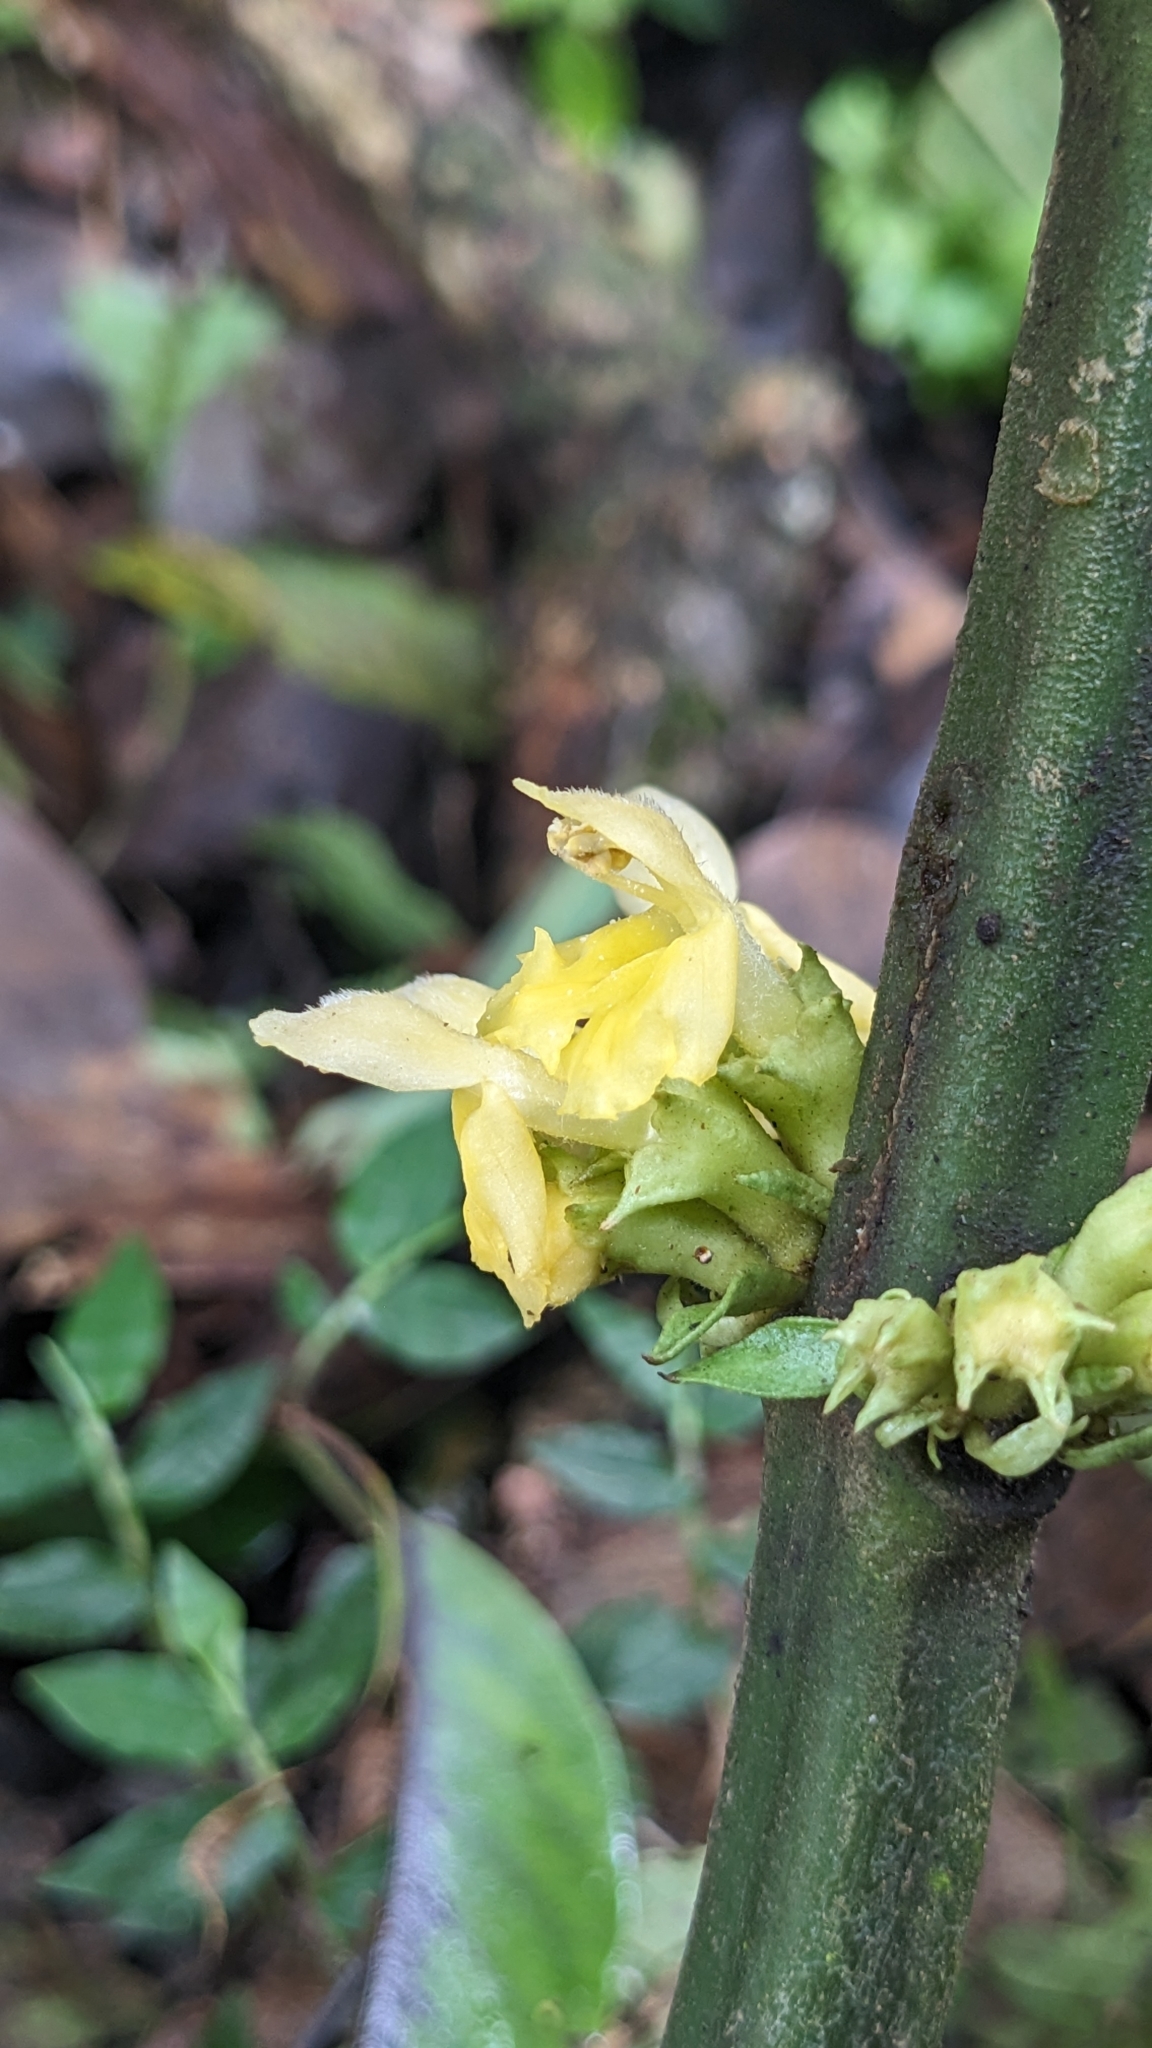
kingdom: Plantae
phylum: Tracheophyta
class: Magnoliopsida
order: Lamiales
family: Lamiaceae
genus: Paraphlomis
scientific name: Paraphlomis javanica
